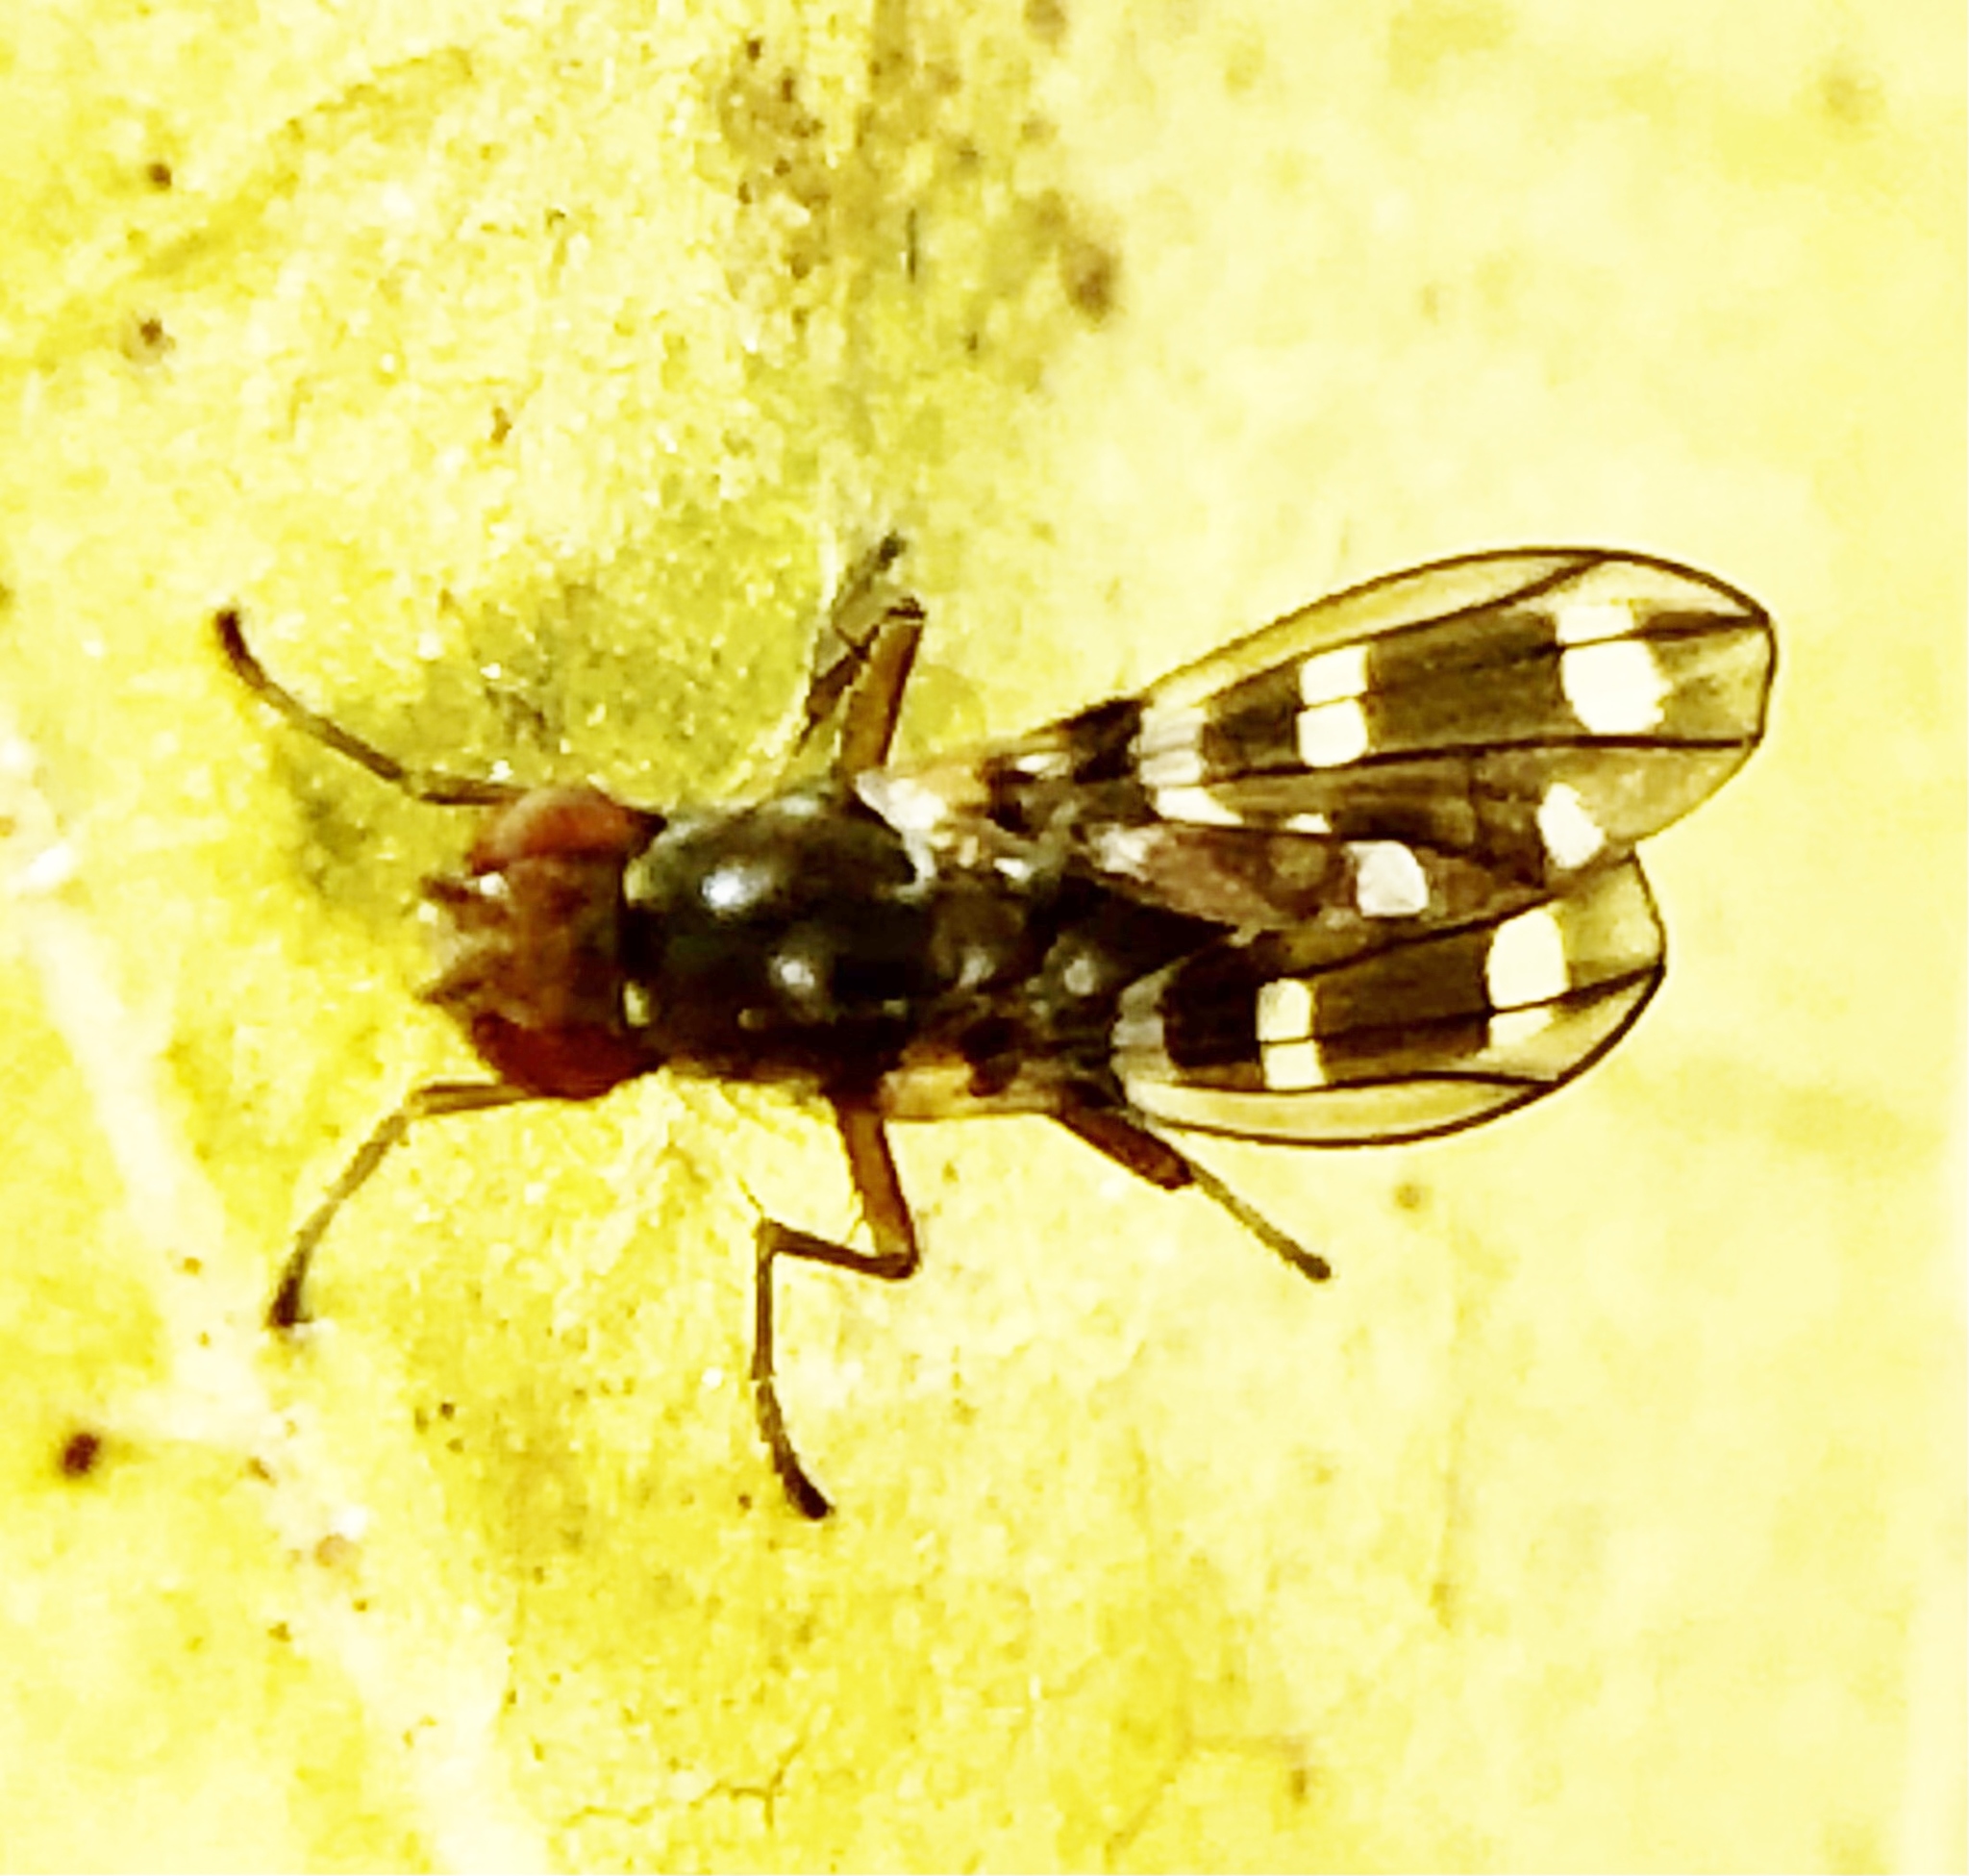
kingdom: Animalia
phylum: Arthropoda
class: Insecta
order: Diptera
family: Diastatidae
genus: Diastata
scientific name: Diastata repleta
